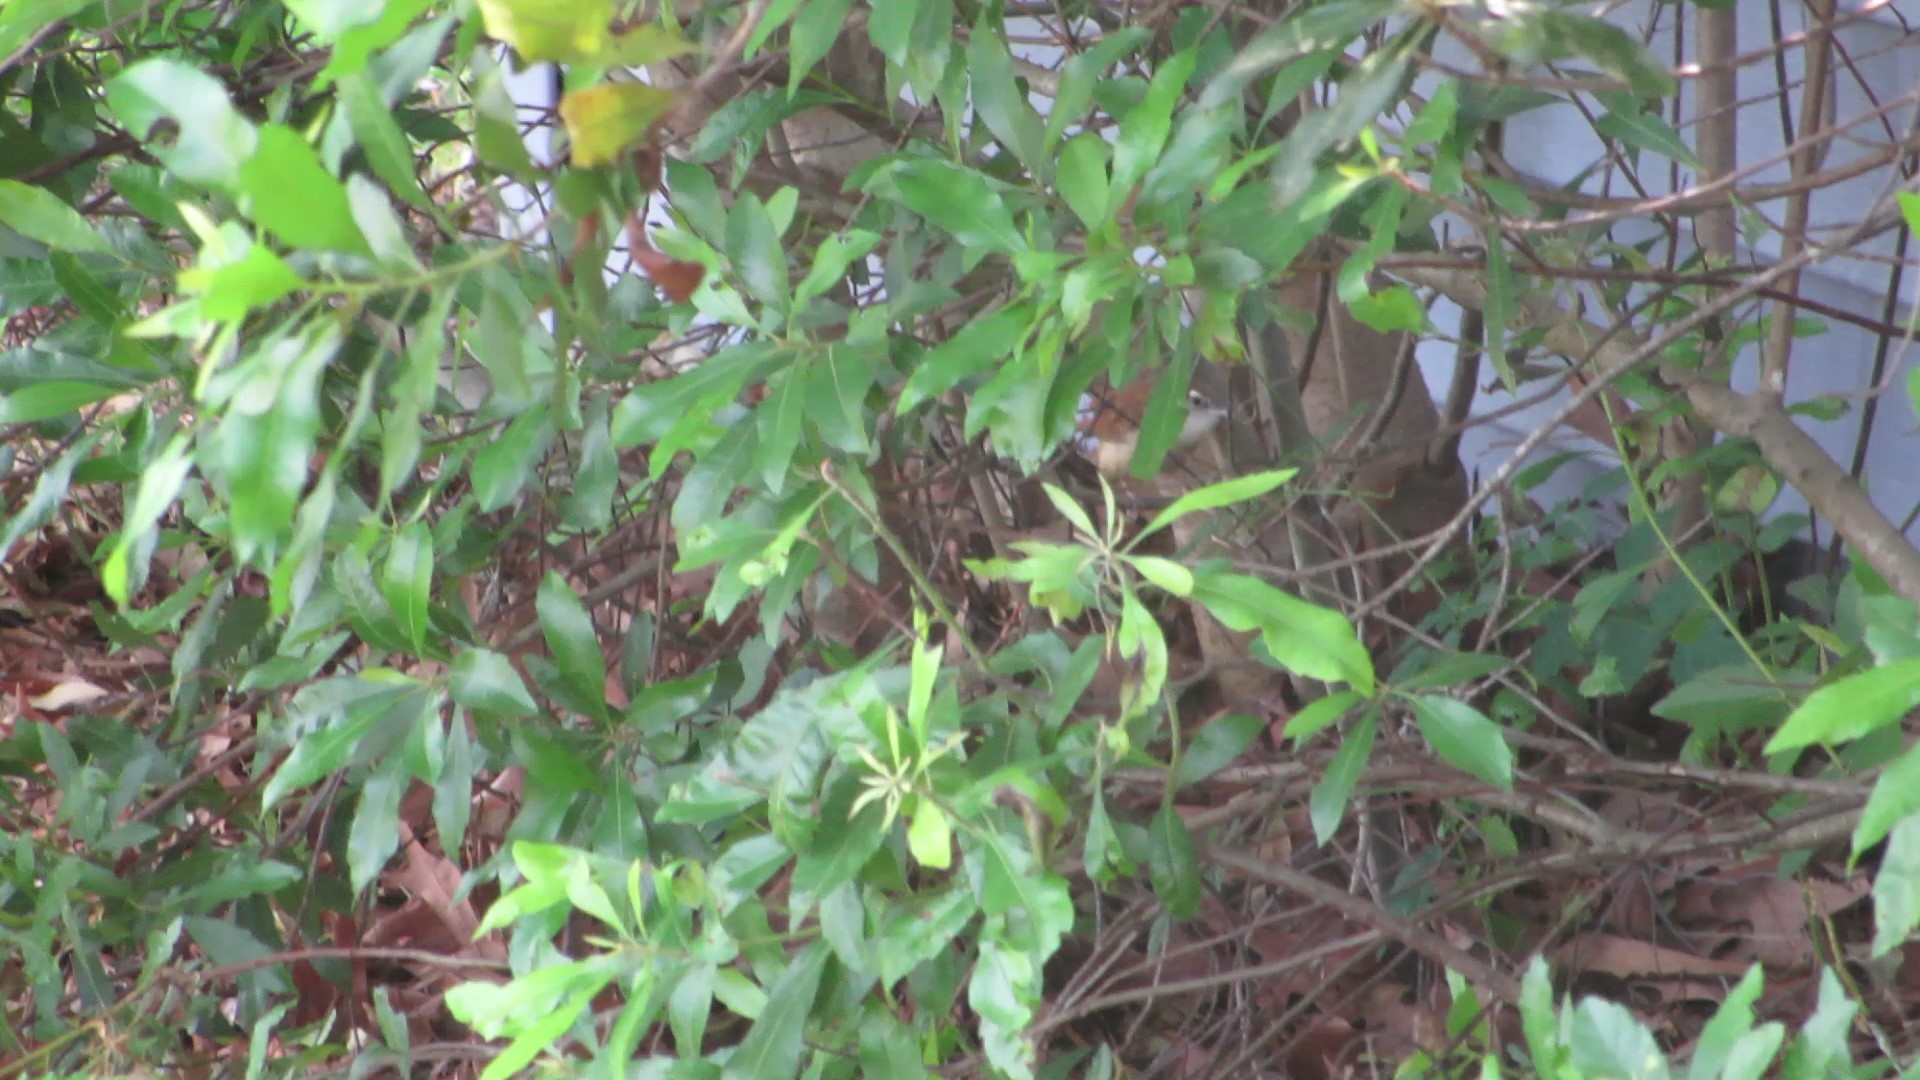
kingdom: Animalia
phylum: Chordata
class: Aves
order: Passeriformes
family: Troglodytidae
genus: Thryothorus
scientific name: Thryothorus ludovicianus
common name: Carolina wren
